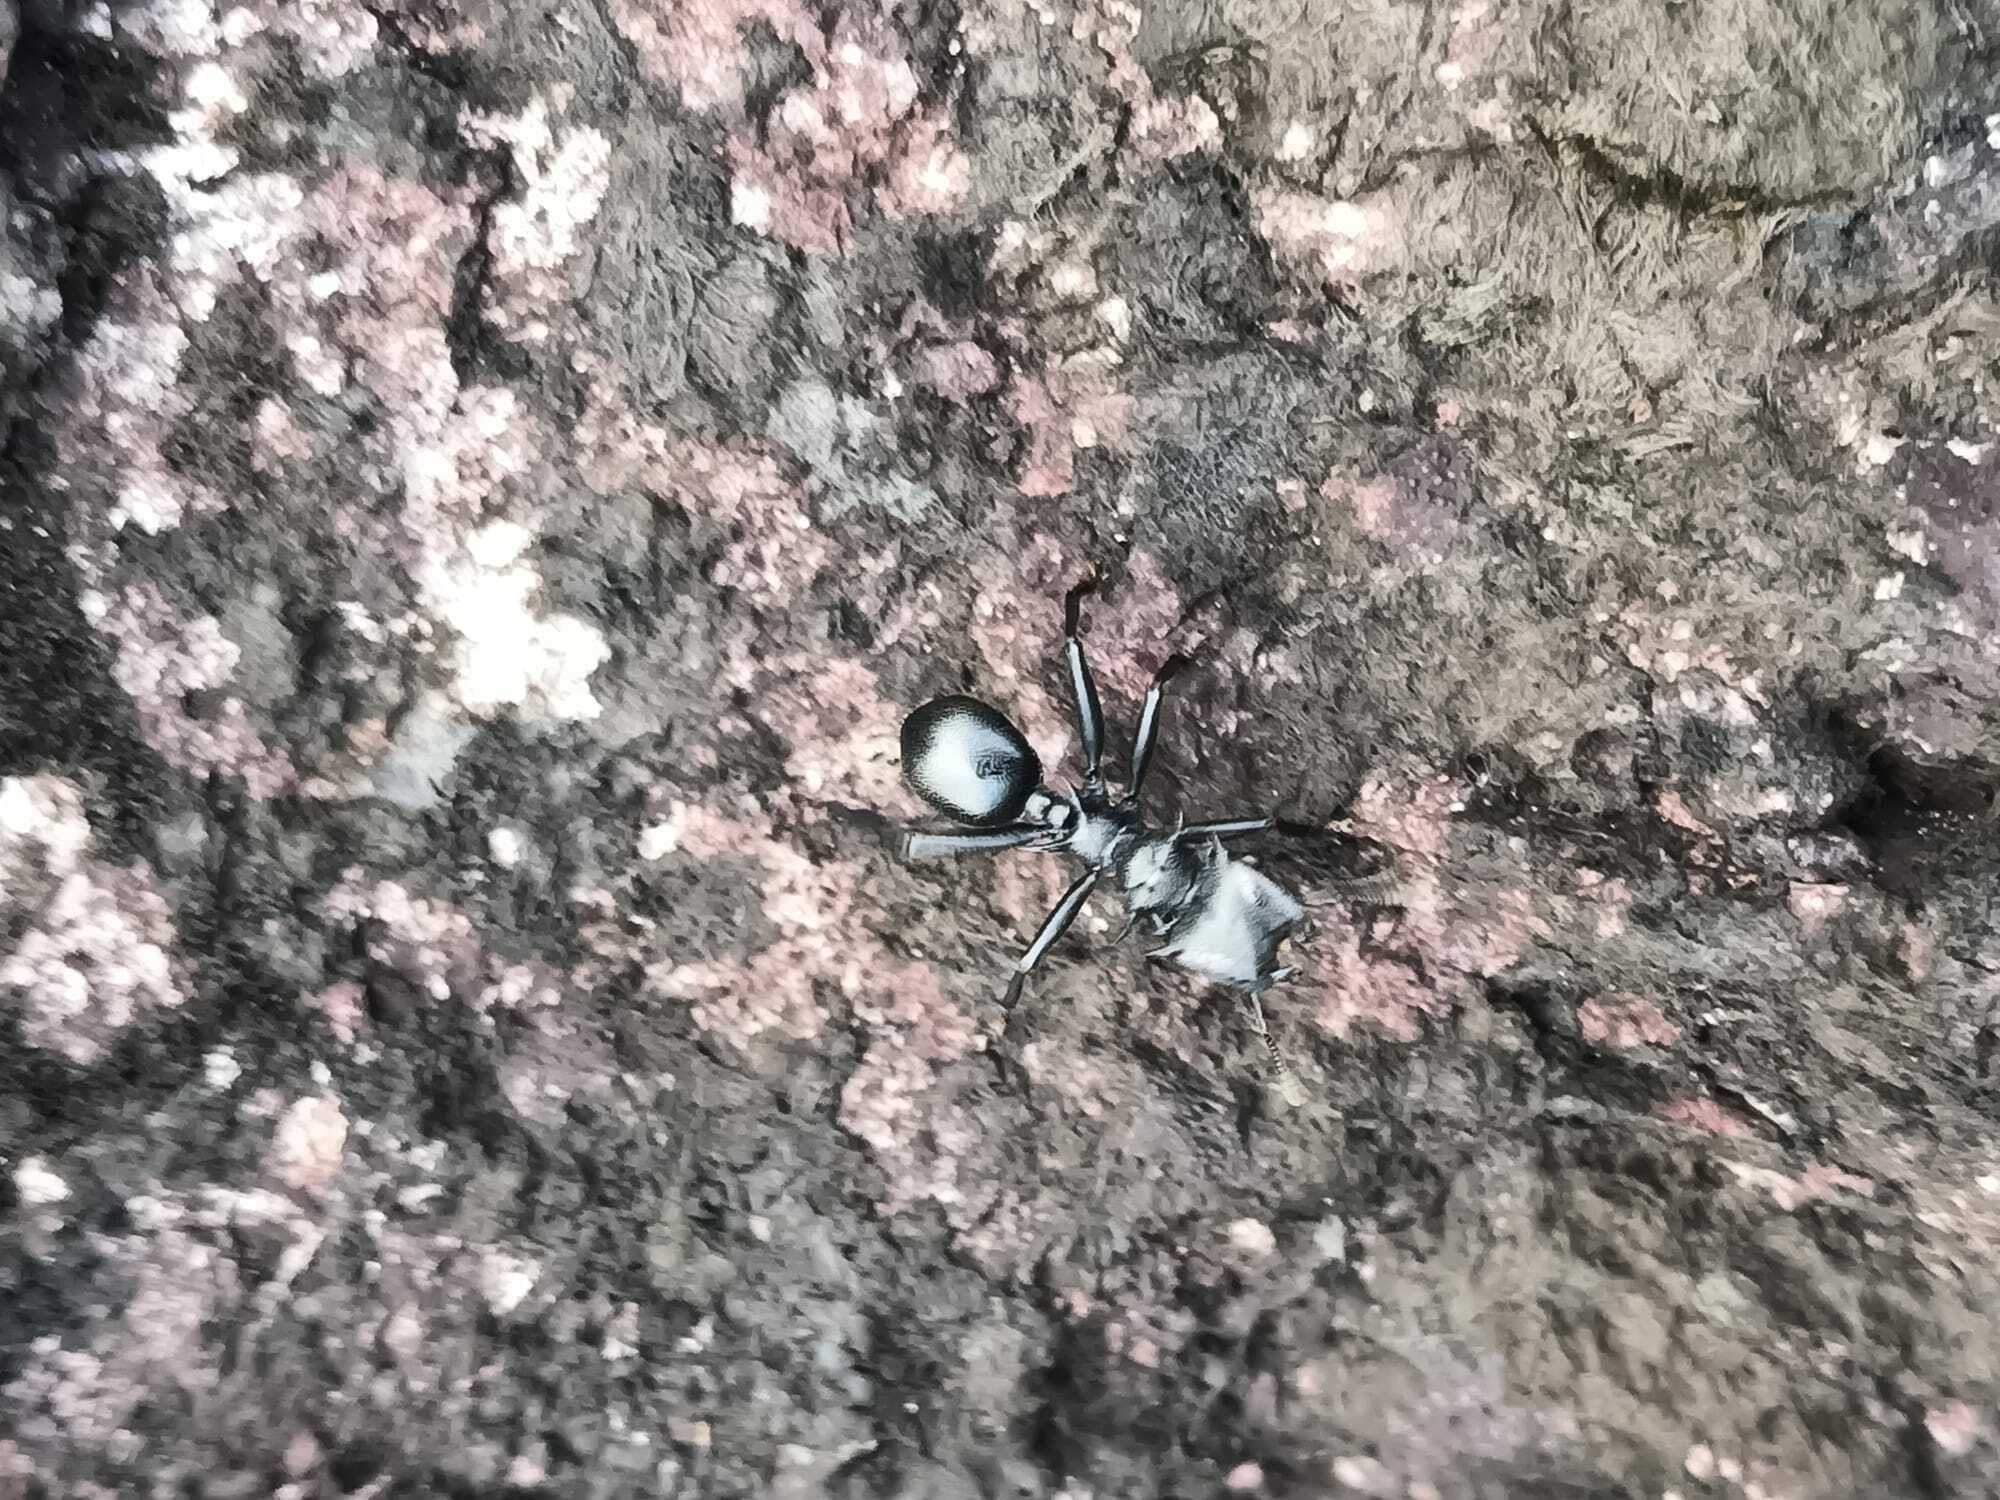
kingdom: Animalia
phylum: Arthropoda
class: Insecta
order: Hymenoptera
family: Formicidae
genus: Cephalotes
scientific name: Cephalotes atratus
